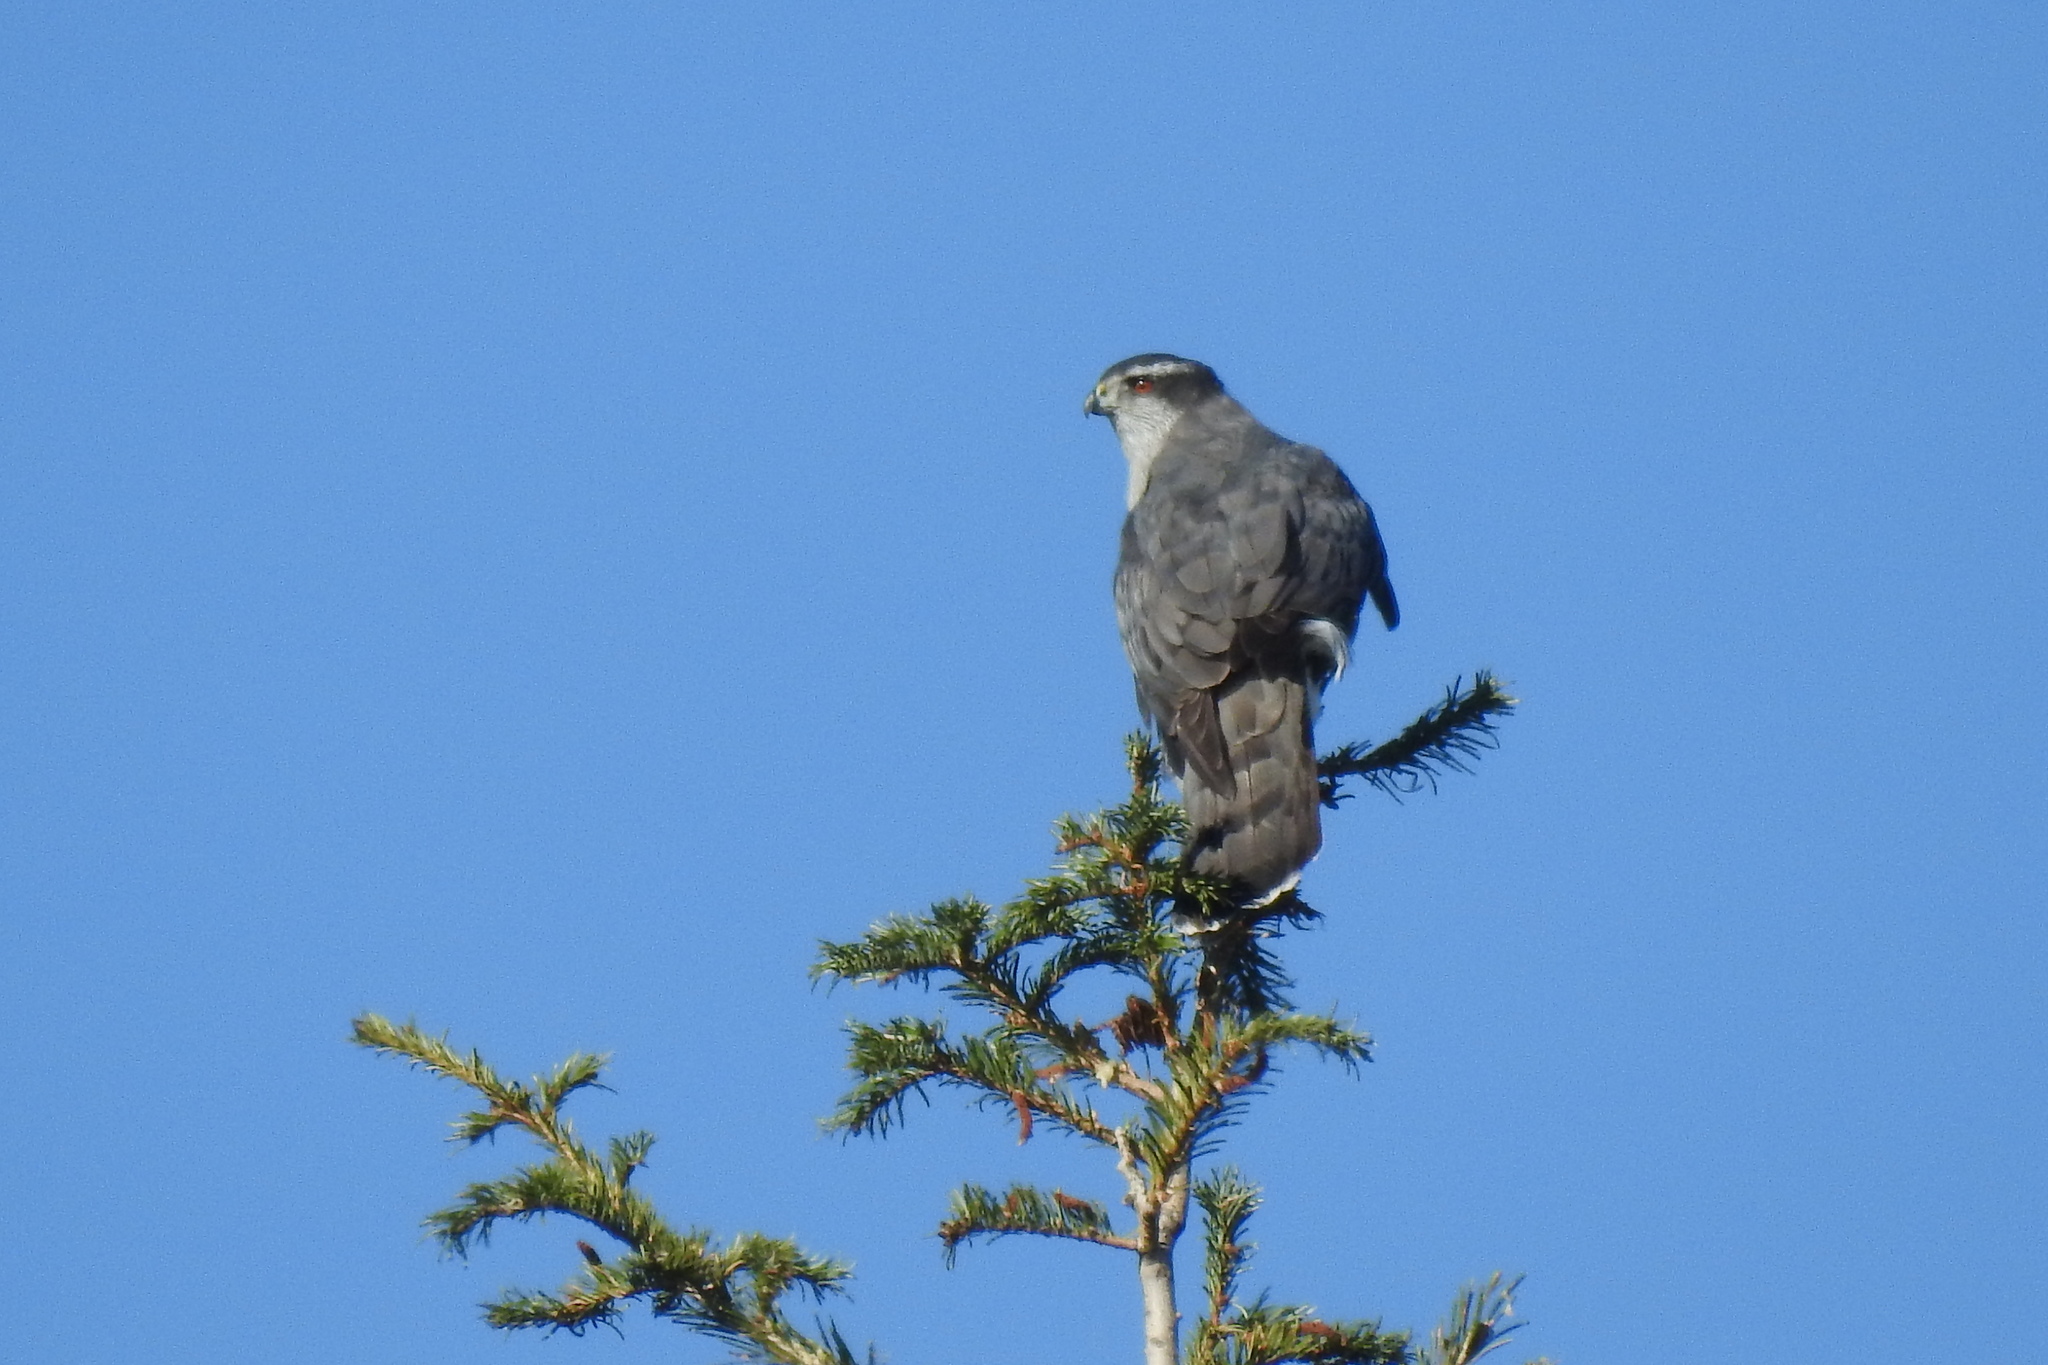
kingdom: Animalia
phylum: Chordata
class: Aves
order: Accipitriformes
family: Accipitridae
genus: Accipiter
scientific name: Accipiter gentilis
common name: Northern goshawk
